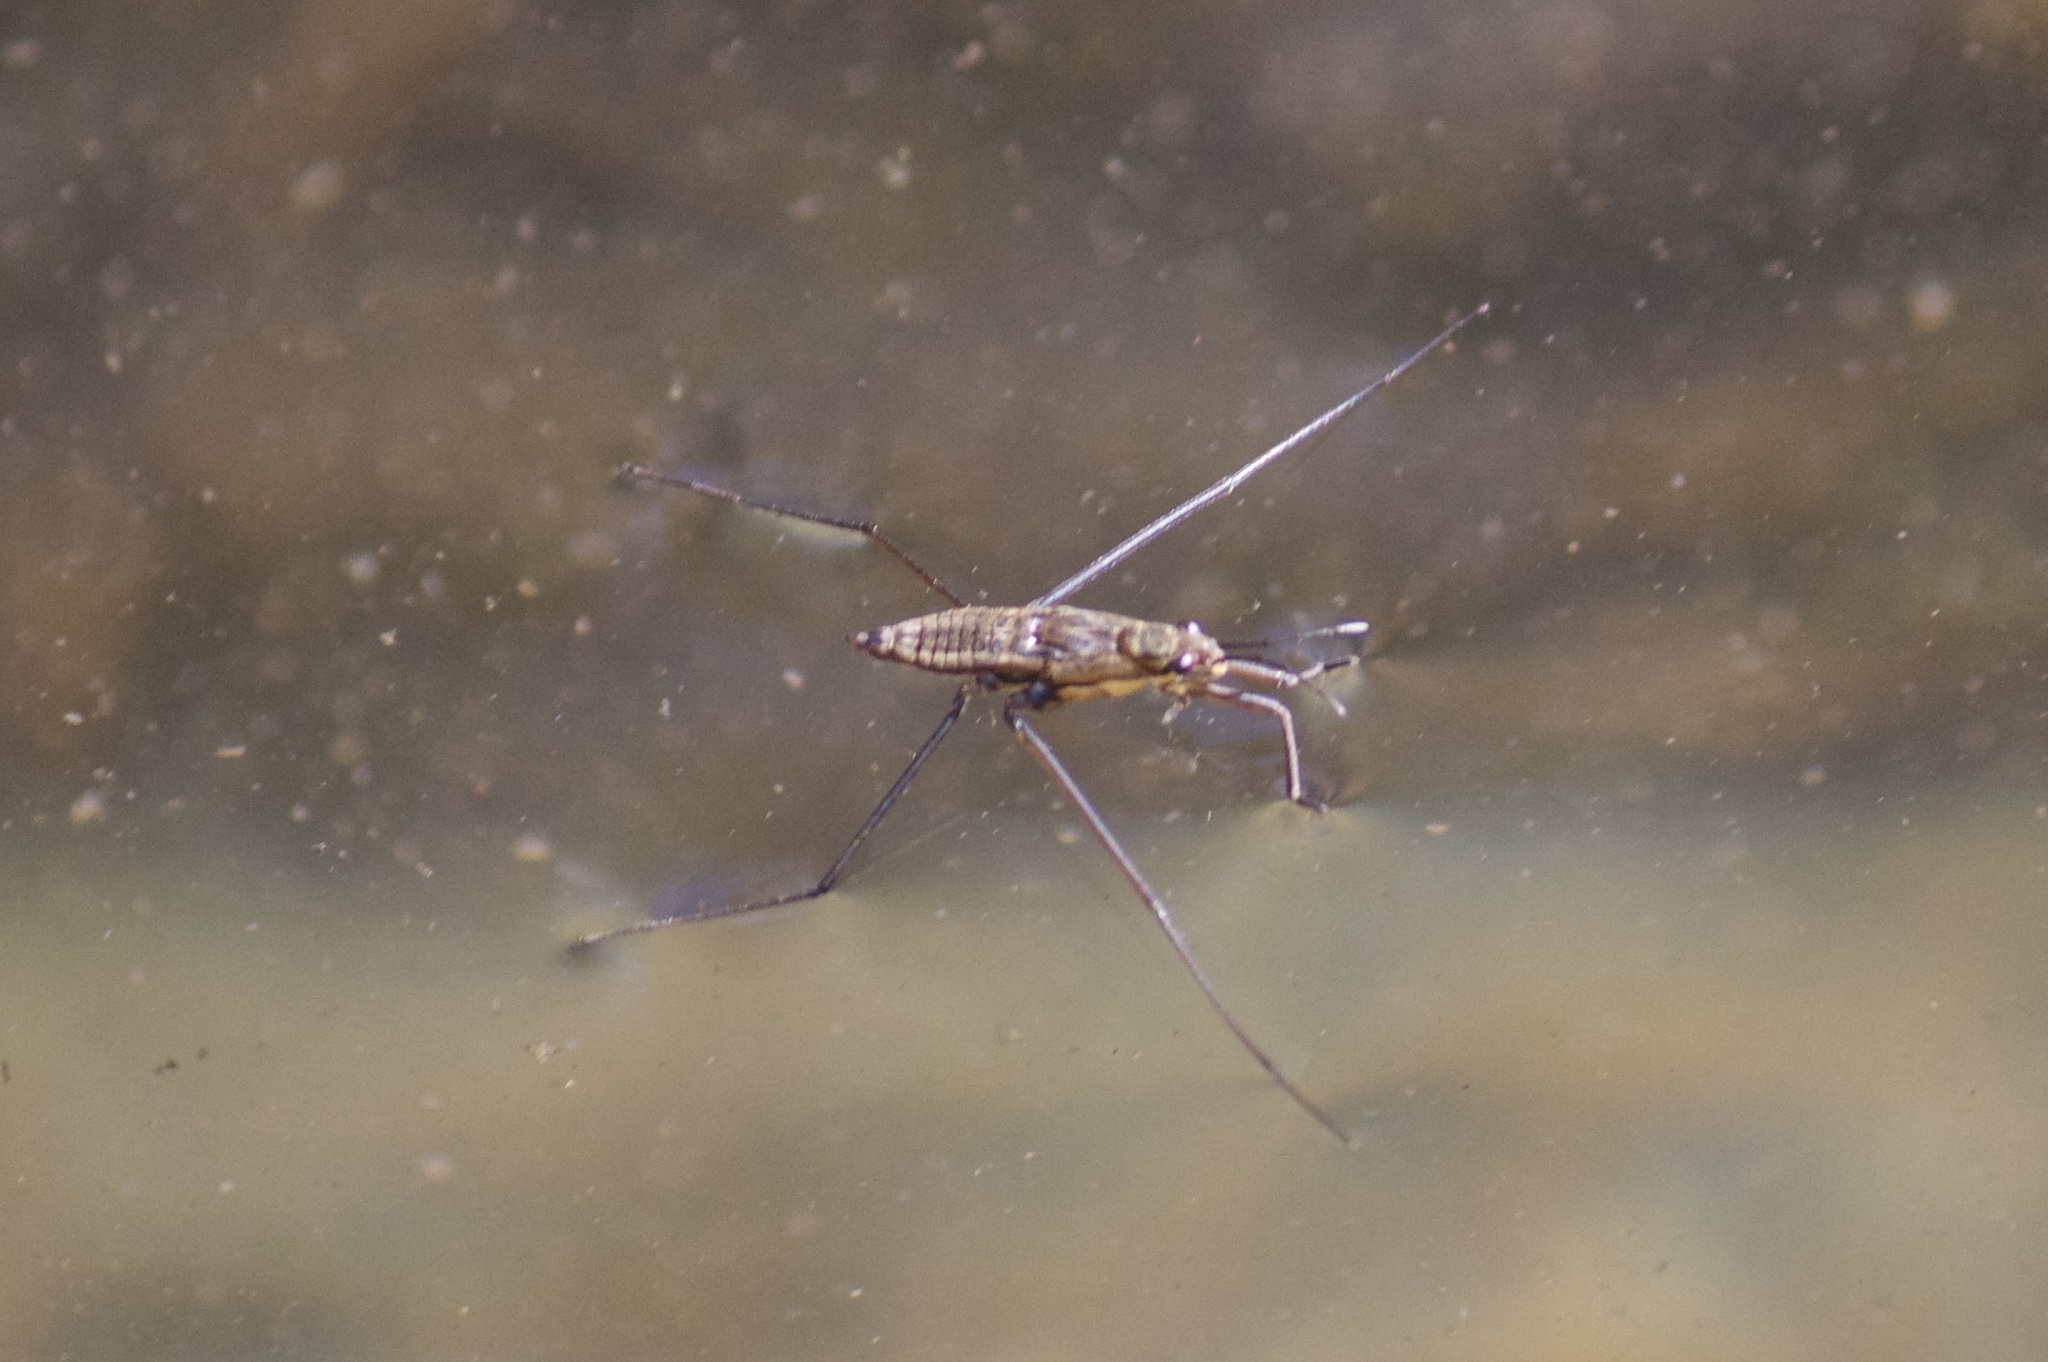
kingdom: Animalia
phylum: Arthropoda
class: Insecta
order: Hemiptera
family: Gerridae
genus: Aquarius
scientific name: Aquarius remigis
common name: Common water strider
